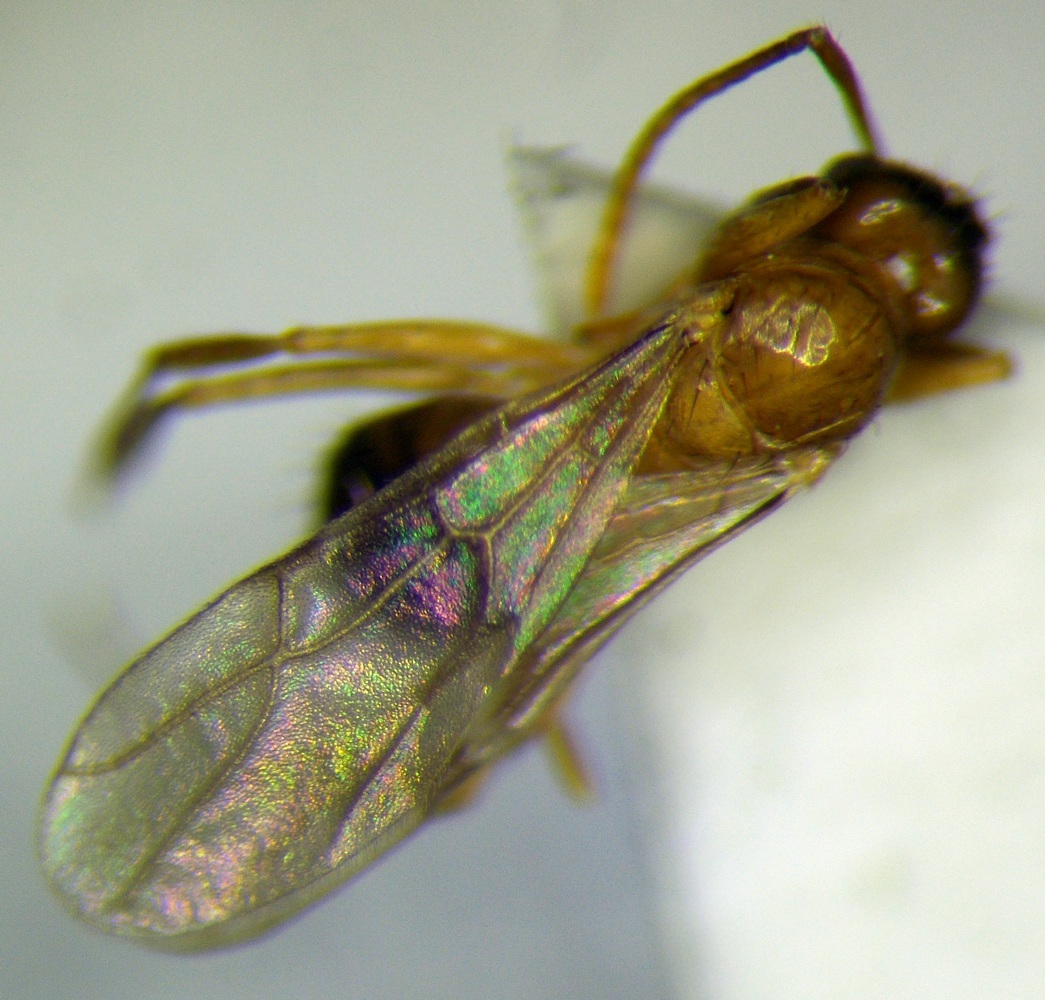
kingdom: Animalia
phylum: Arthropoda
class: Insecta
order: Hymenoptera
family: Formicidae
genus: Paratrechina
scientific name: Paratrechina jaegerskioeldi
